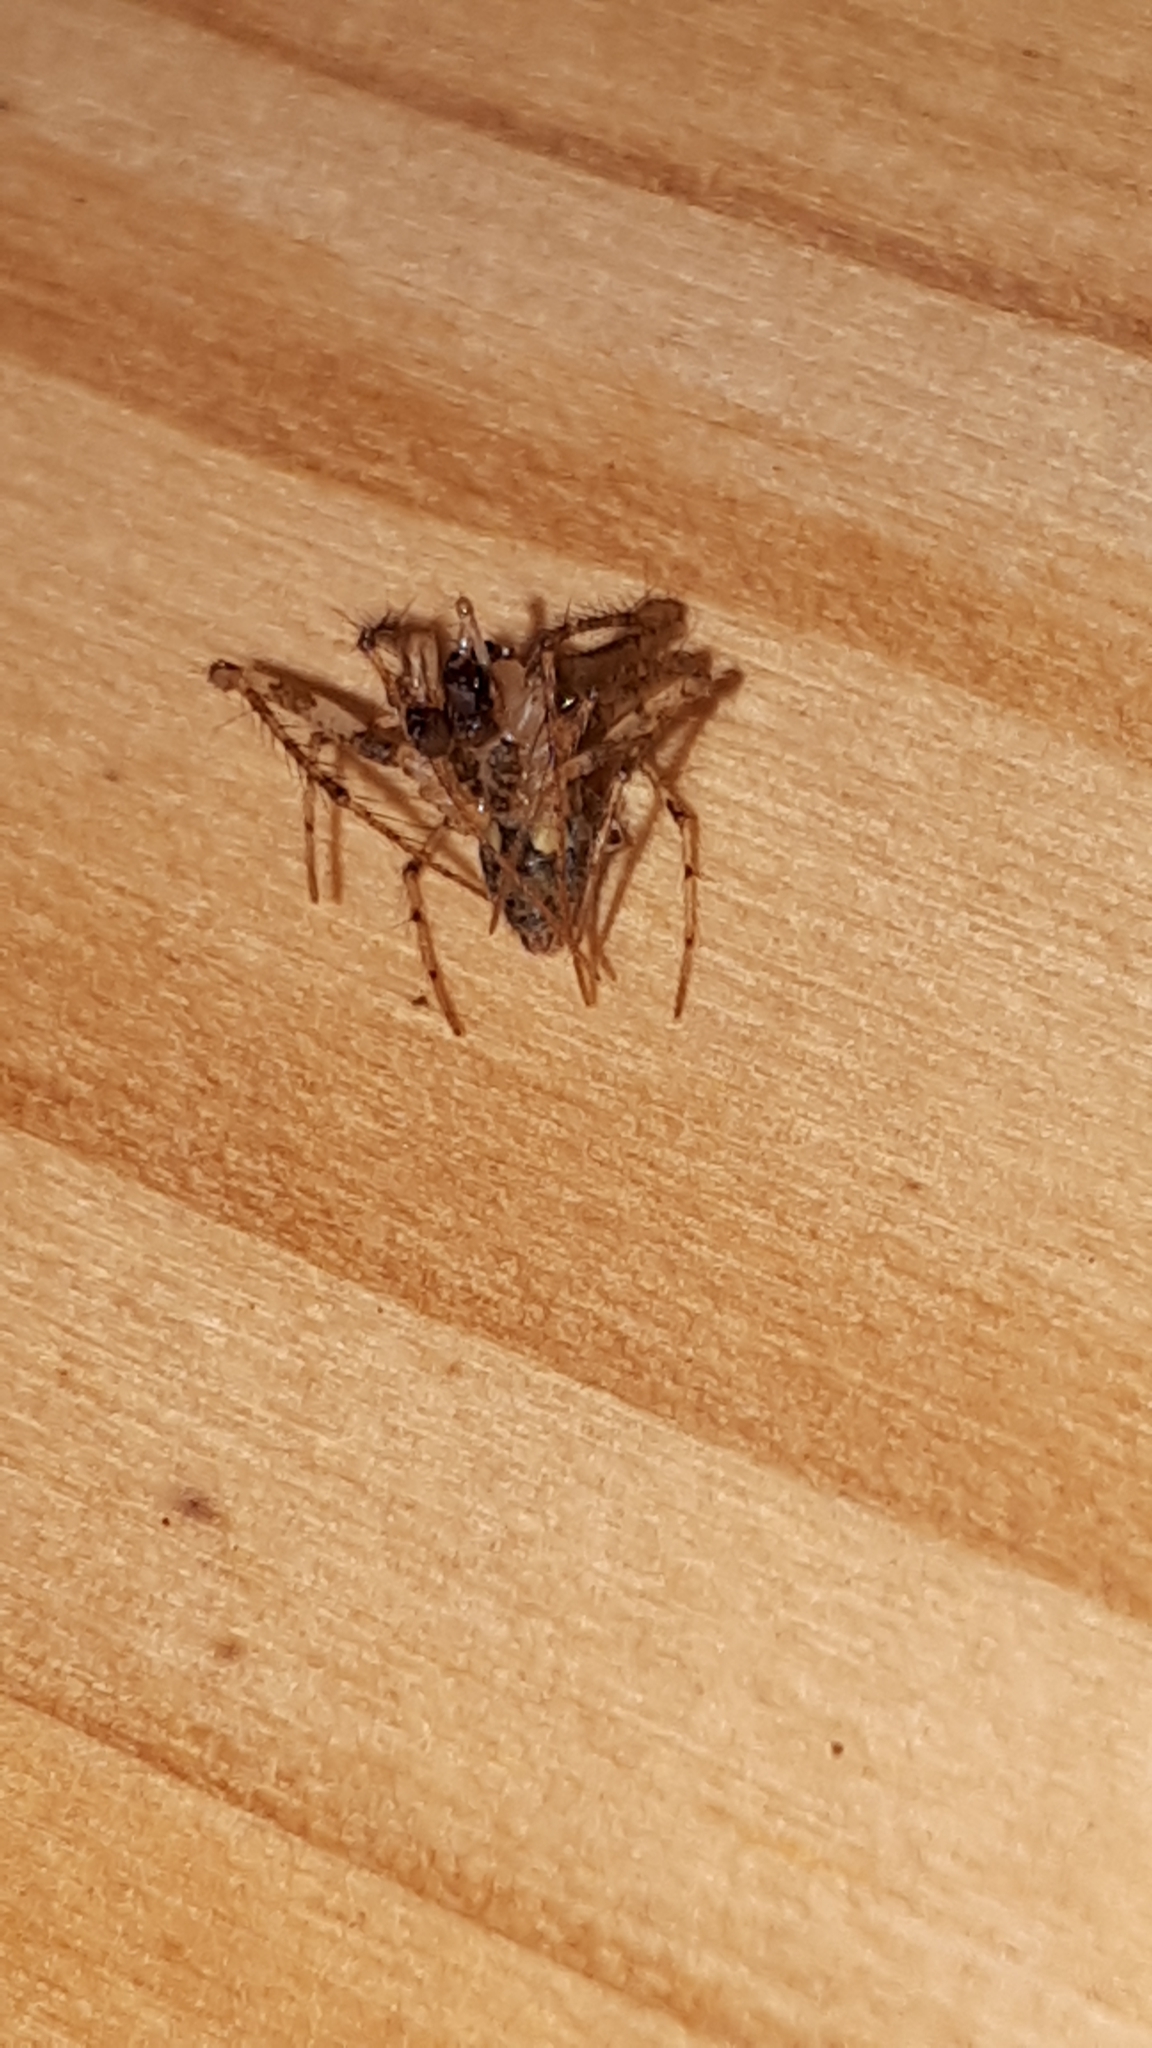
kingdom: Animalia
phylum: Arthropoda
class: Arachnida
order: Araneae
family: Mimetidae
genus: Ero
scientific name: Ero tuberculata
